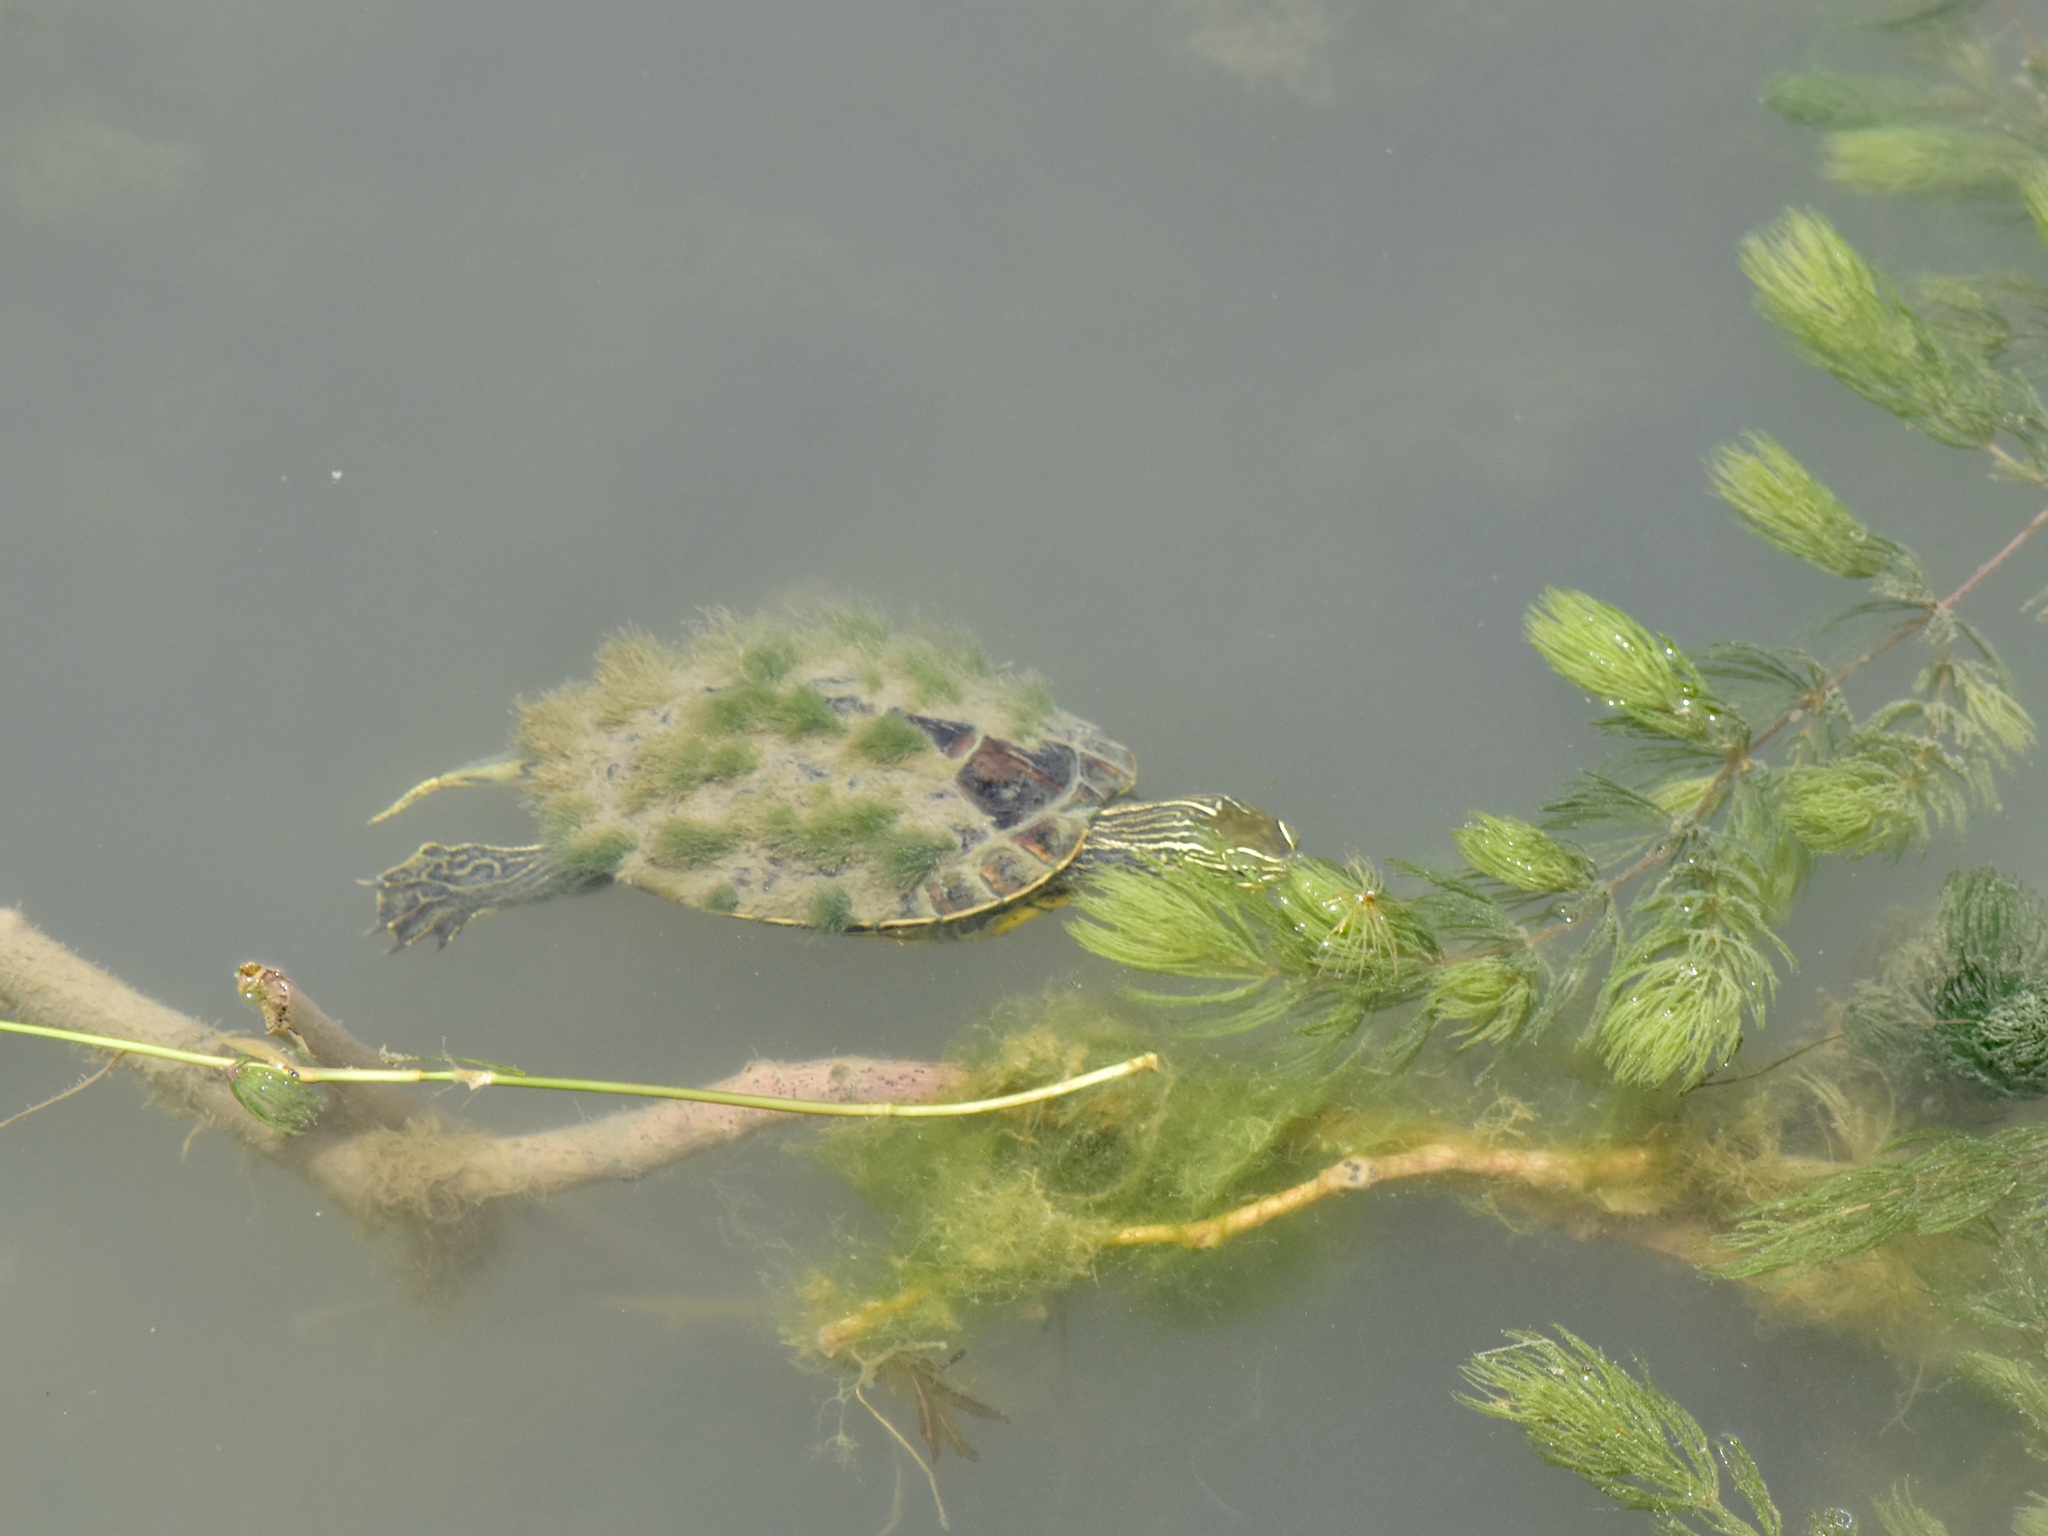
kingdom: Animalia
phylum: Chordata
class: Testudines
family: Geoemydidae
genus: Mauremys
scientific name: Mauremys caspica
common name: Caspian turtle
